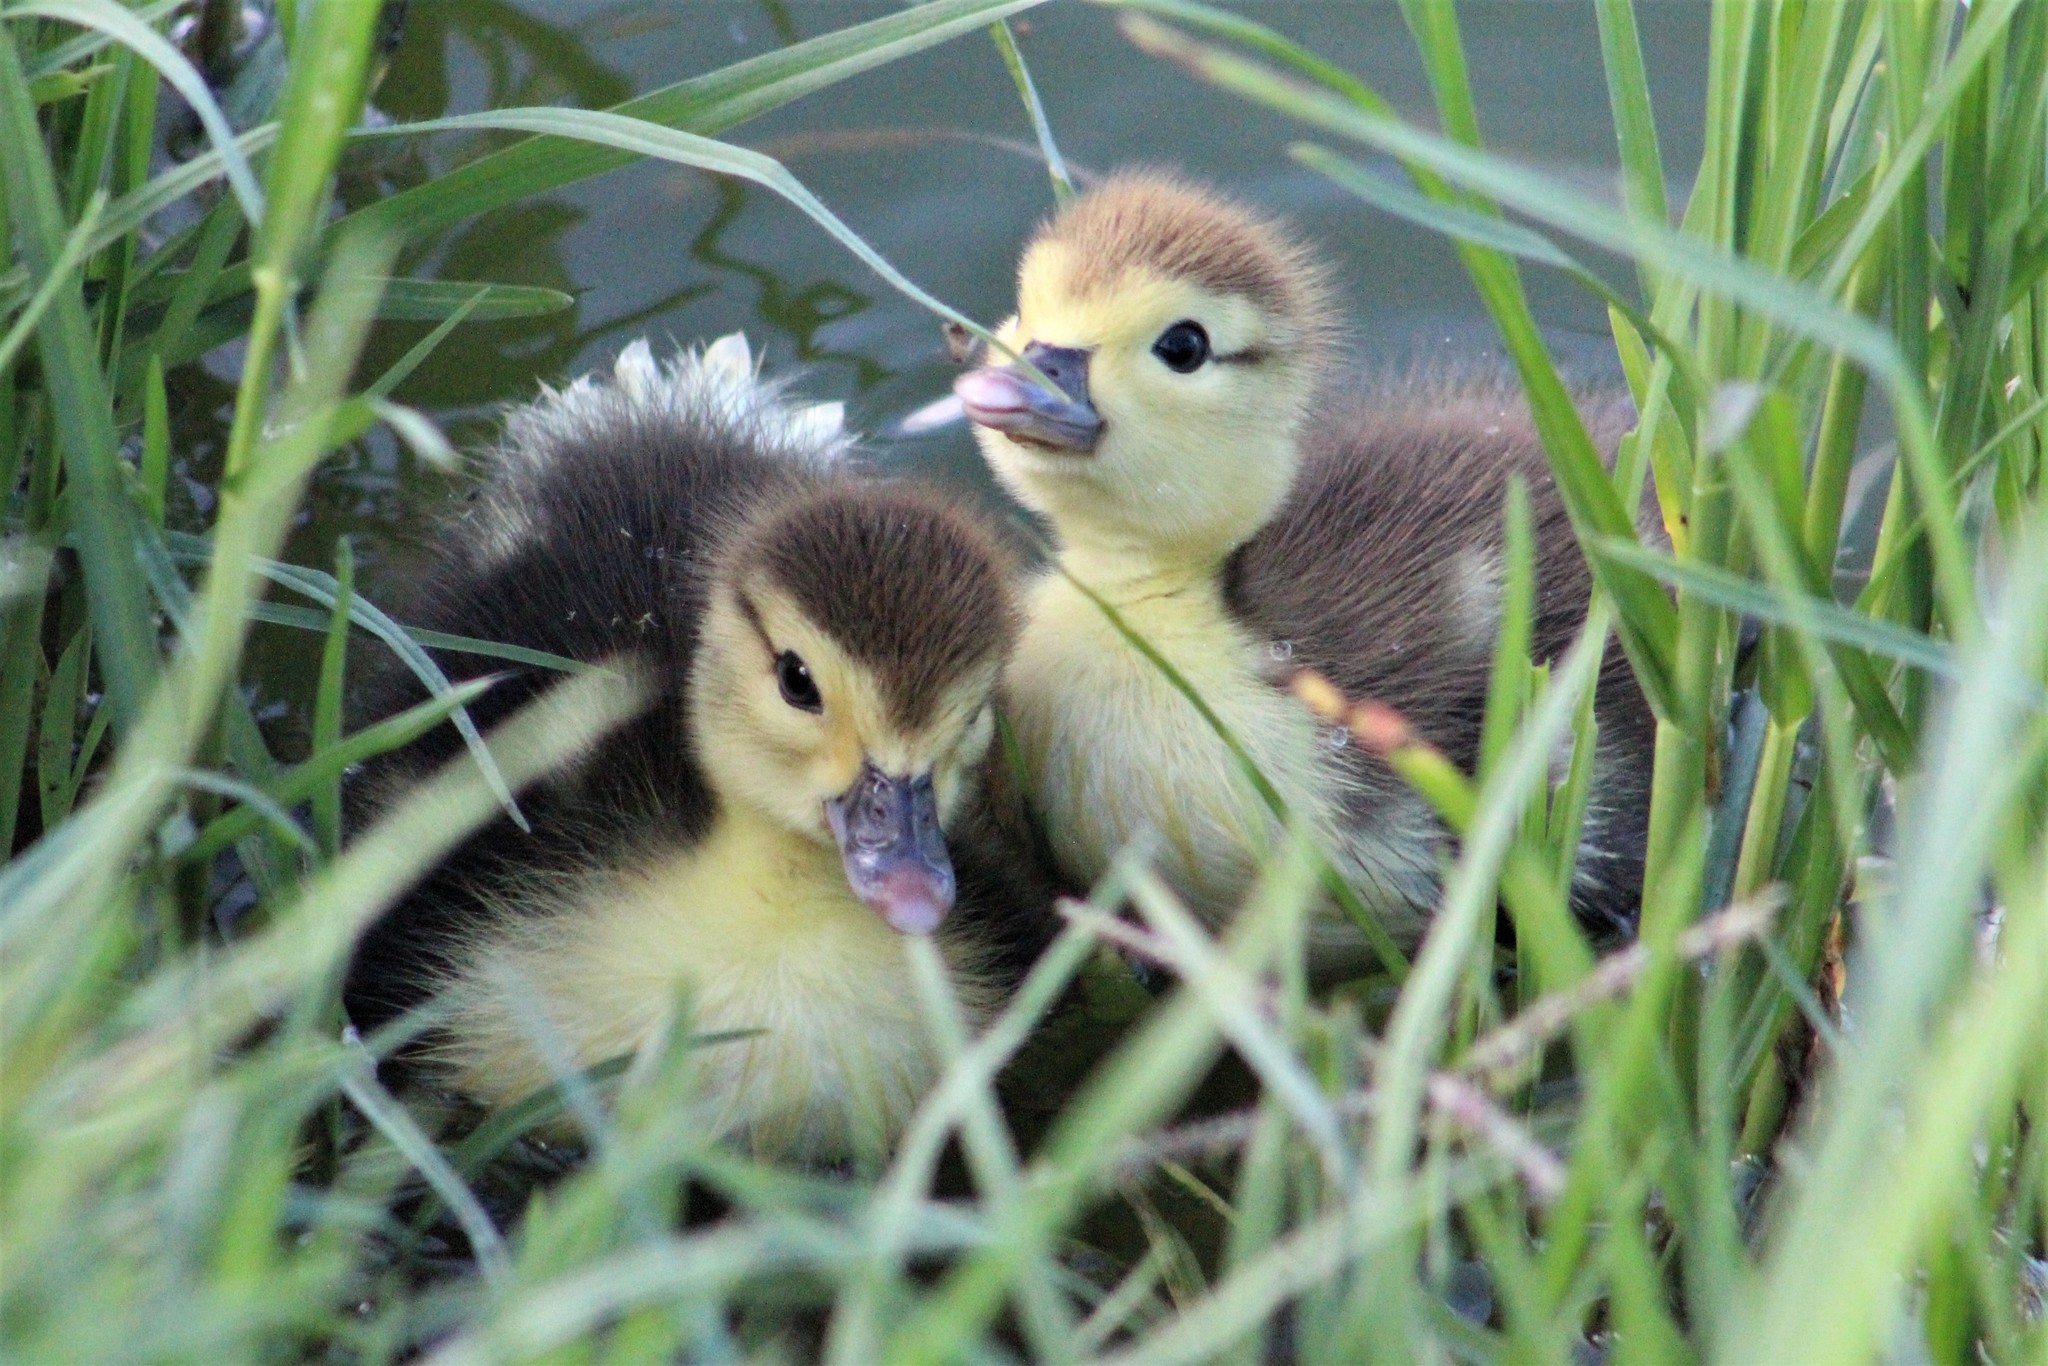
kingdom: Animalia
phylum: Chordata
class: Aves
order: Anseriformes
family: Anatidae
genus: Cairina
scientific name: Cairina moschata
